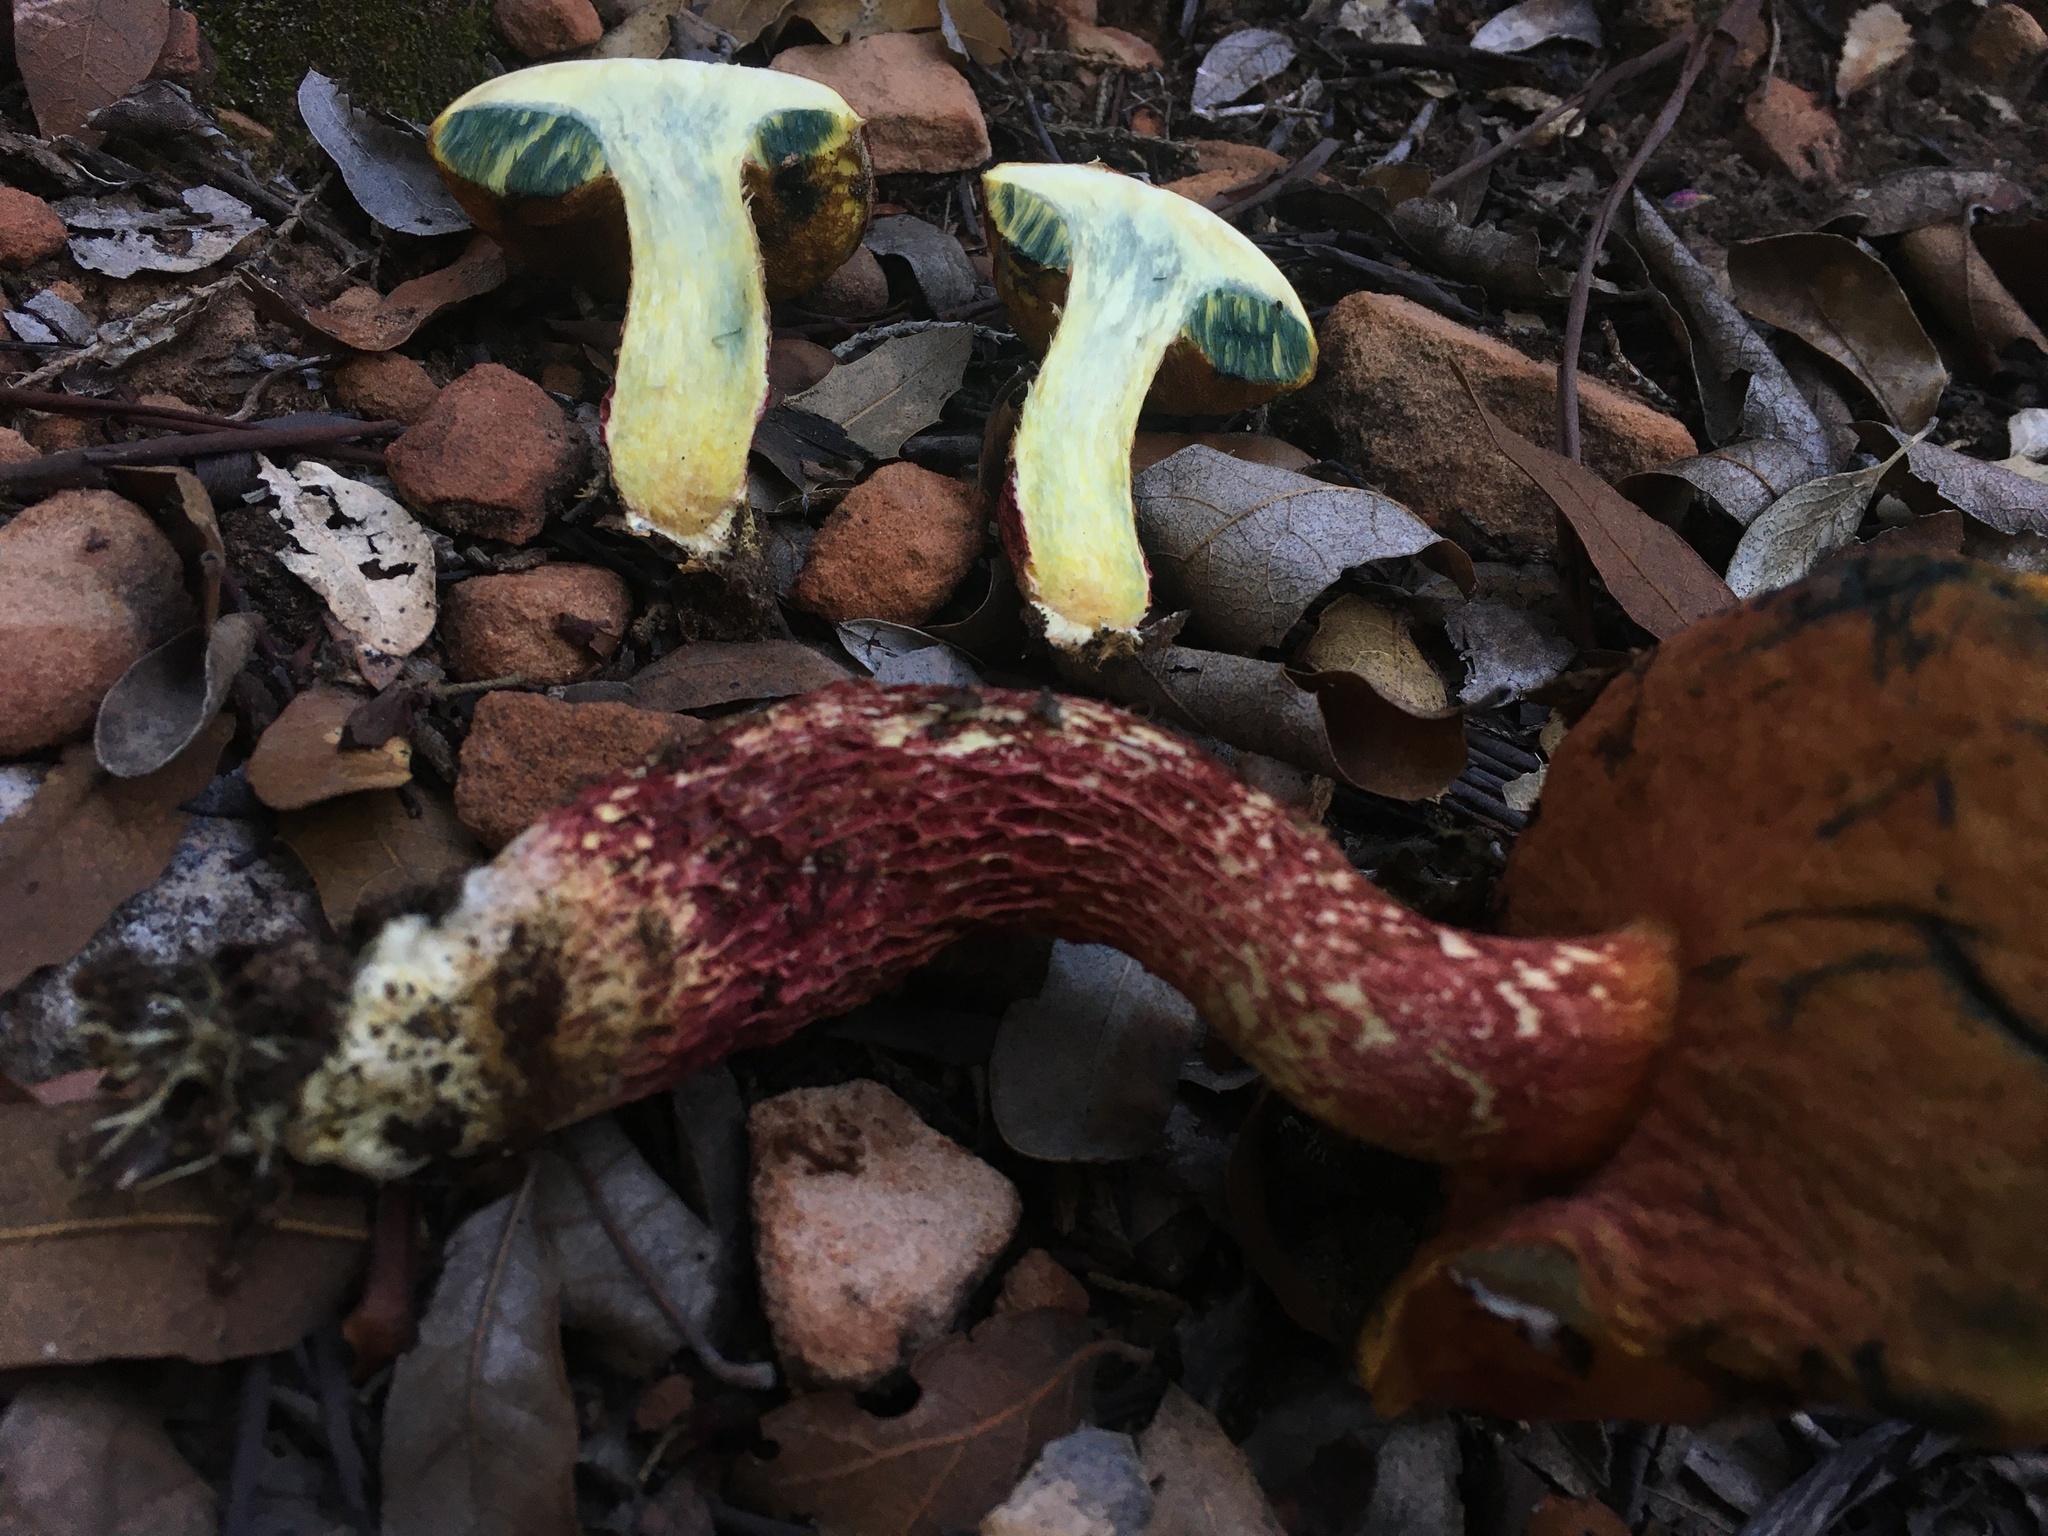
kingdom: Fungi
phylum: Basidiomycota
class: Agaricomycetes
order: Boletales
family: Boletaceae
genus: Butyriboletus
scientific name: Butyriboletus frostii
